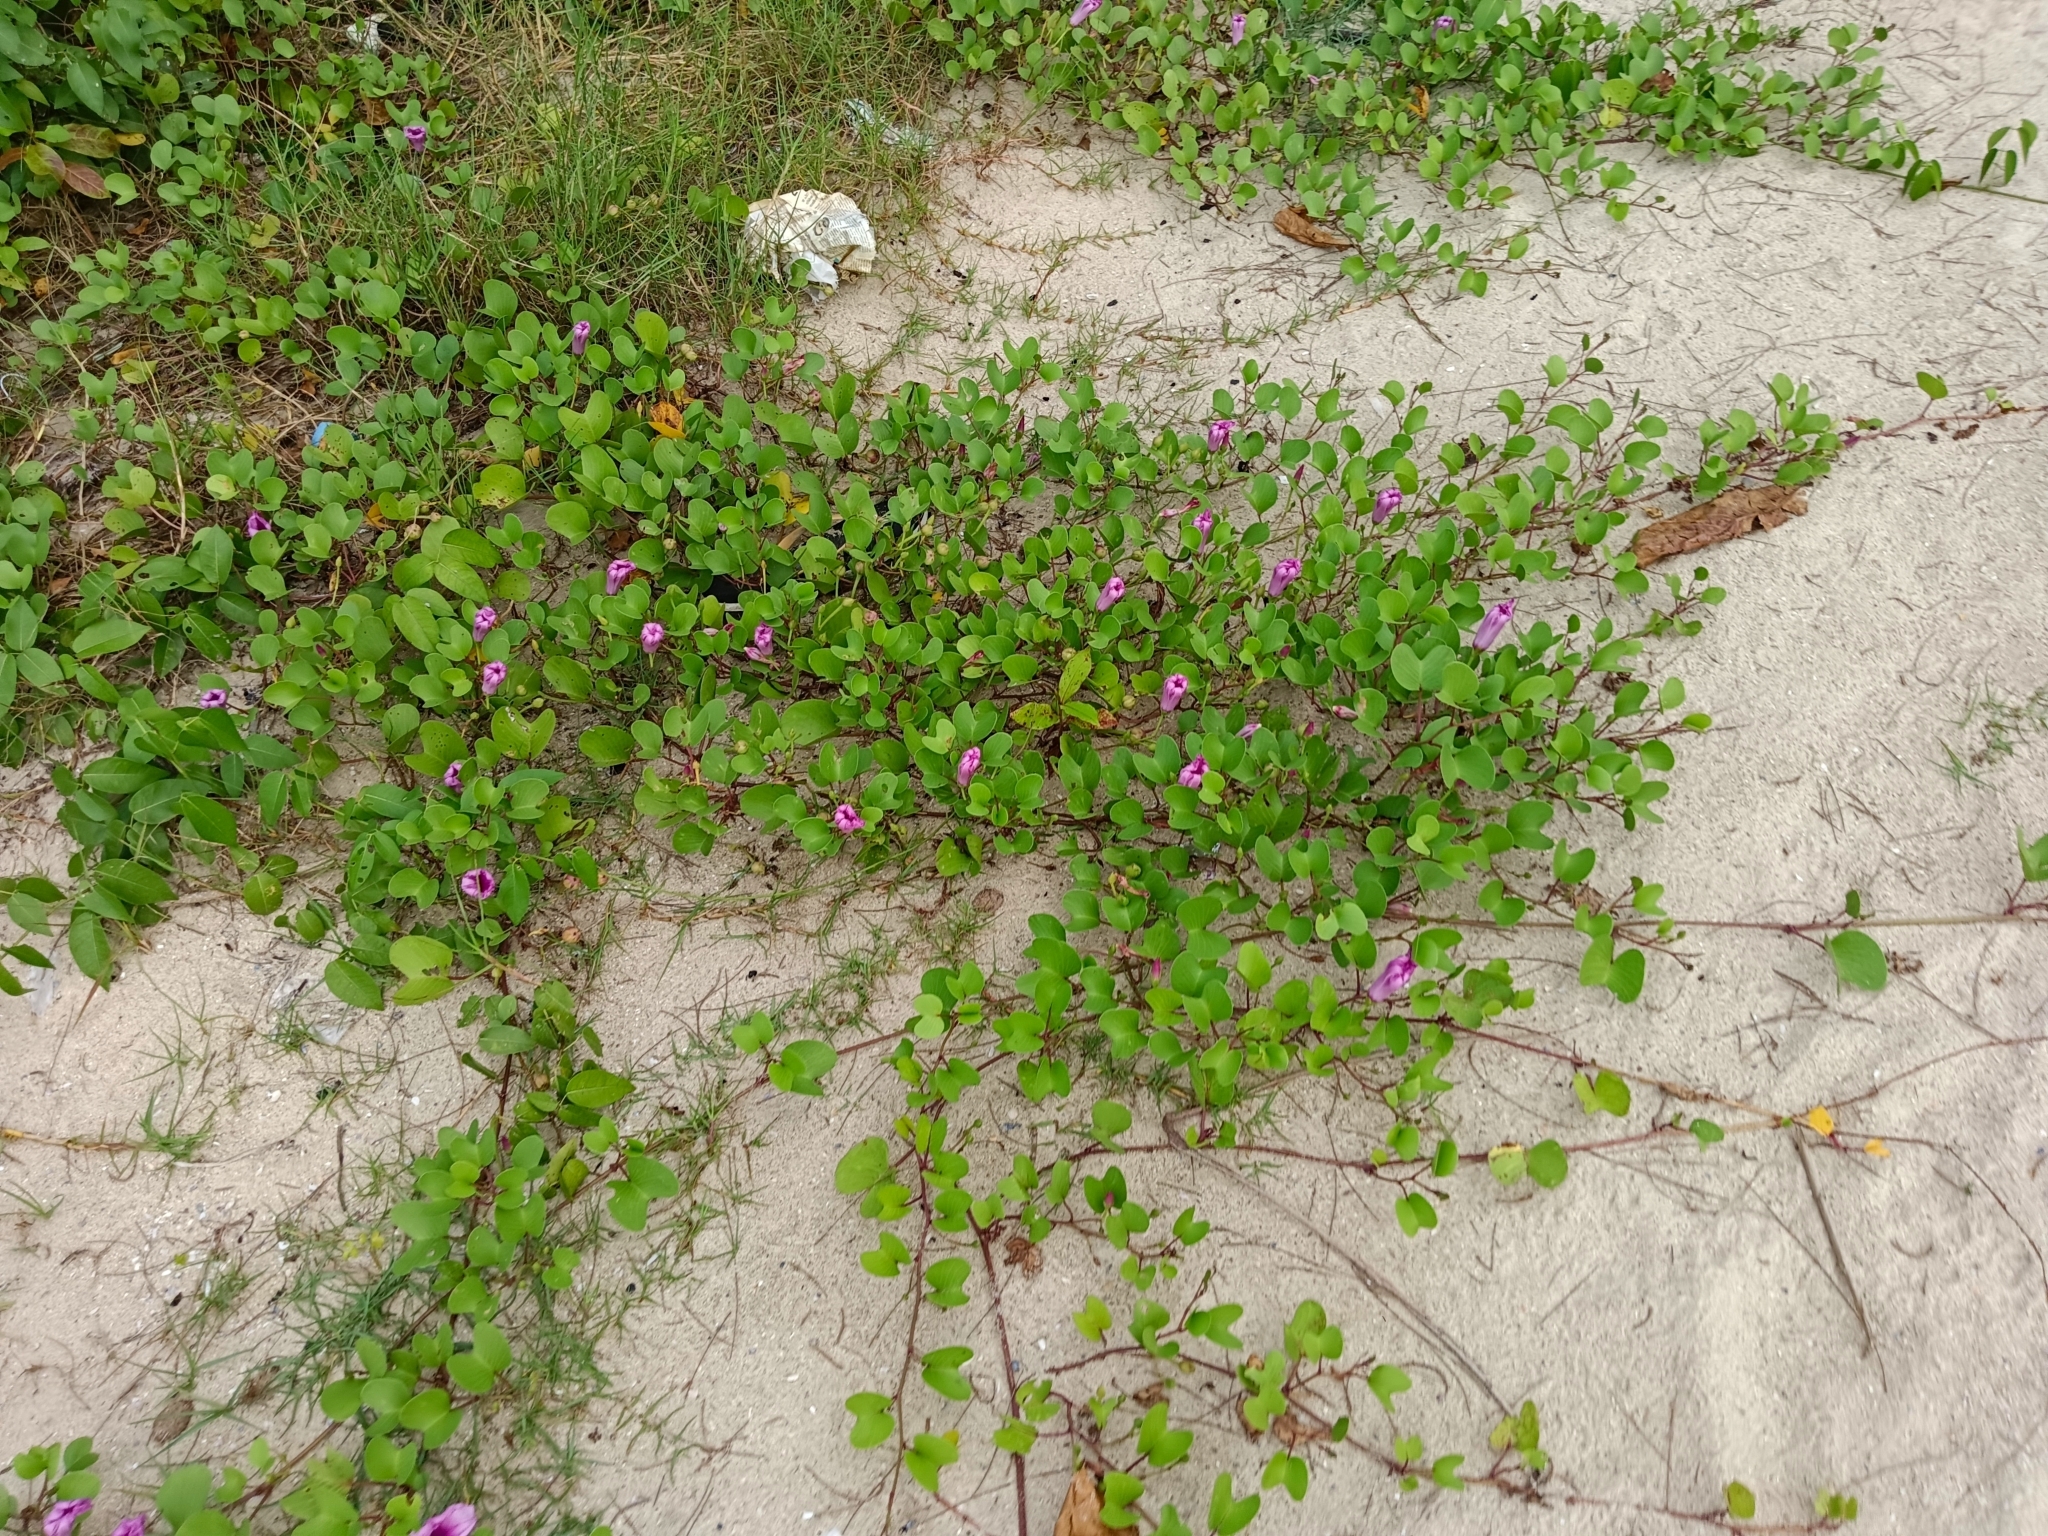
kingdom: Plantae
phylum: Tracheophyta
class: Magnoliopsida
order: Solanales
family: Convolvulaceae
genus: Ipomoea
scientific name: Ipomoea pes-caprae
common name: Beach morning glory
